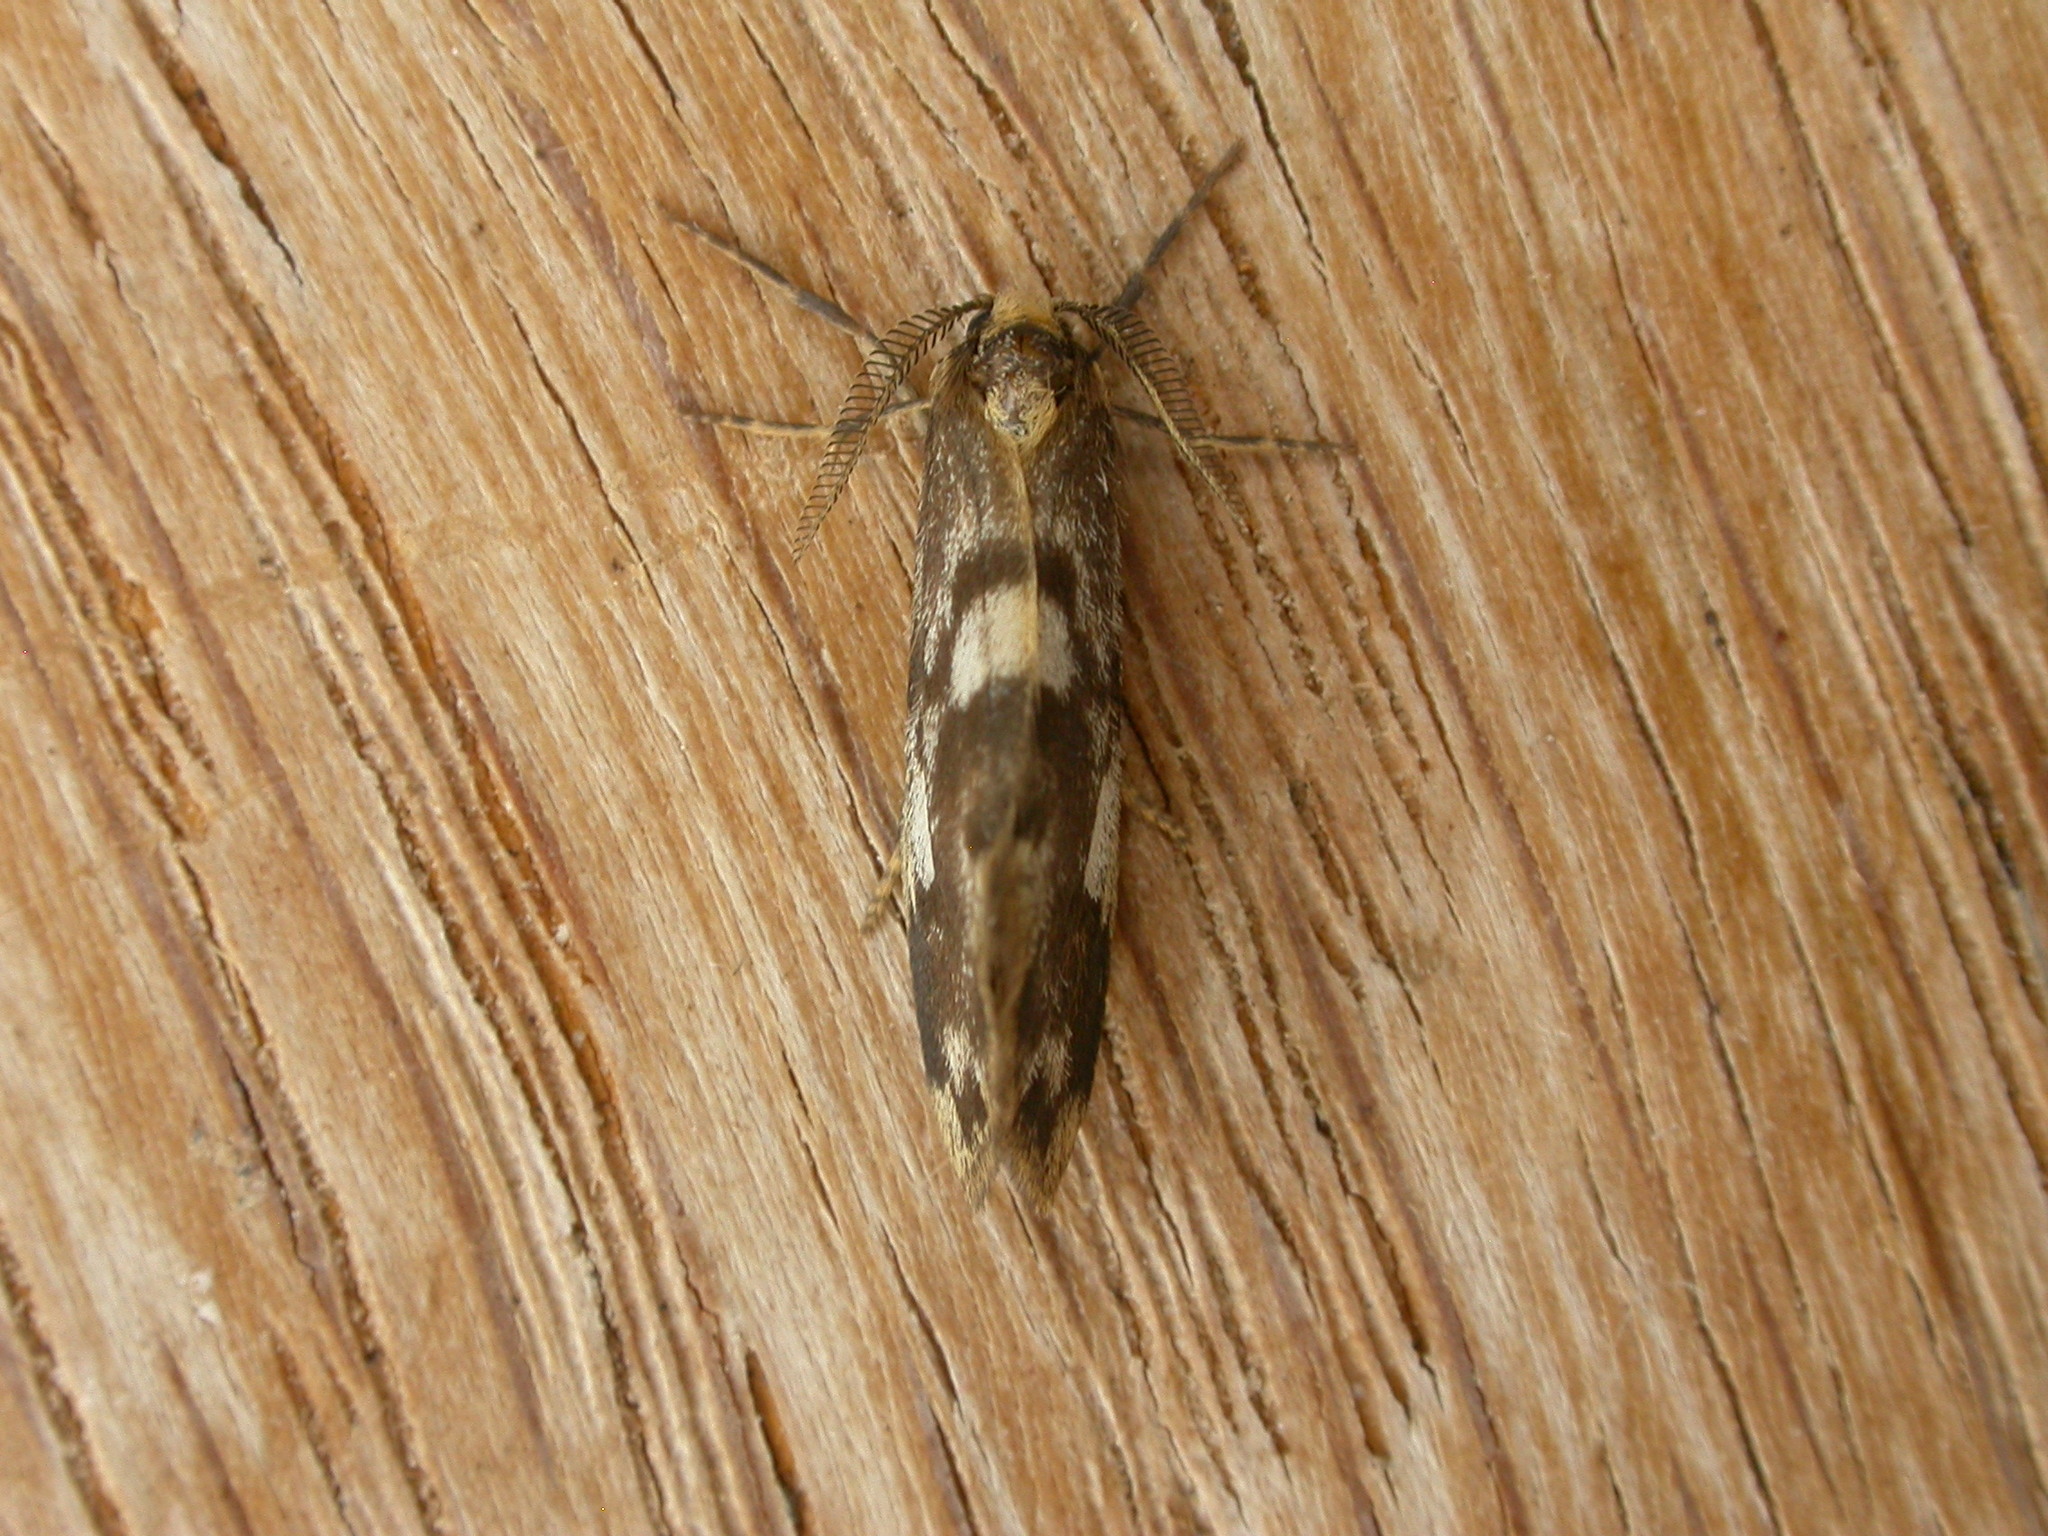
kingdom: Animalia
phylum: Arthropoda
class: Insecta
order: Lepidoptera
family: Erebidae
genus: Anestia
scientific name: Anestia semiochrea
